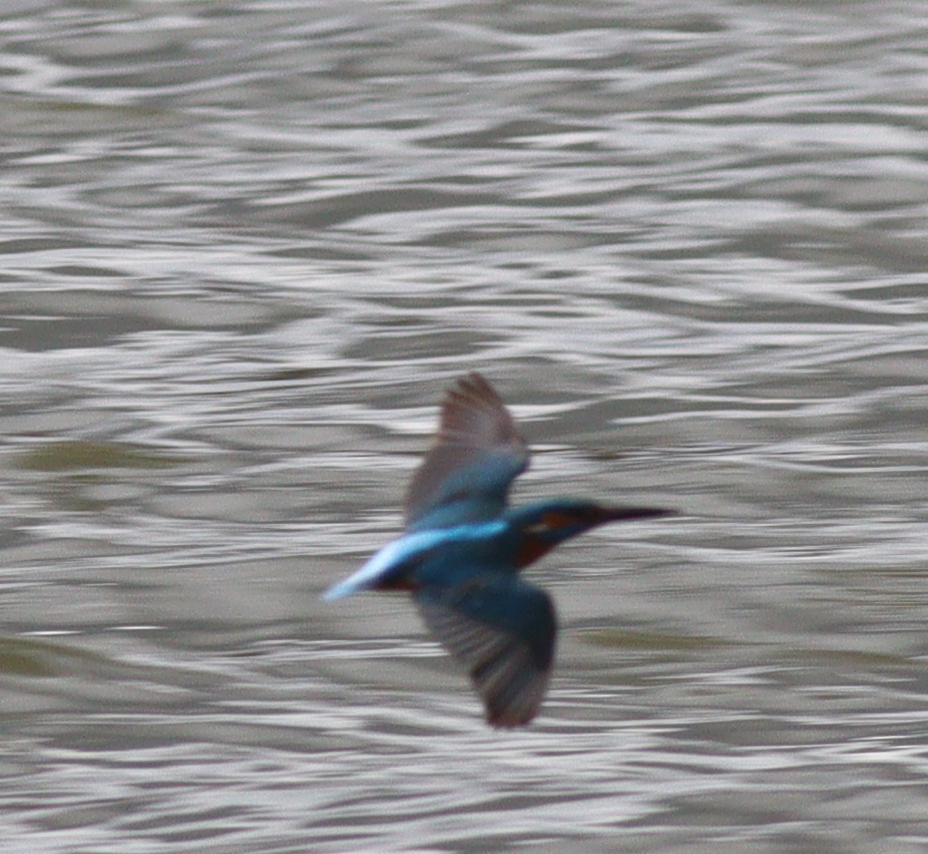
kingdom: Animalia
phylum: Chordata
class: Aves
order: Coraciiformes
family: Alcedinidae
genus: Alcedo
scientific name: Alcedo atthis
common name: Common kingfisher
